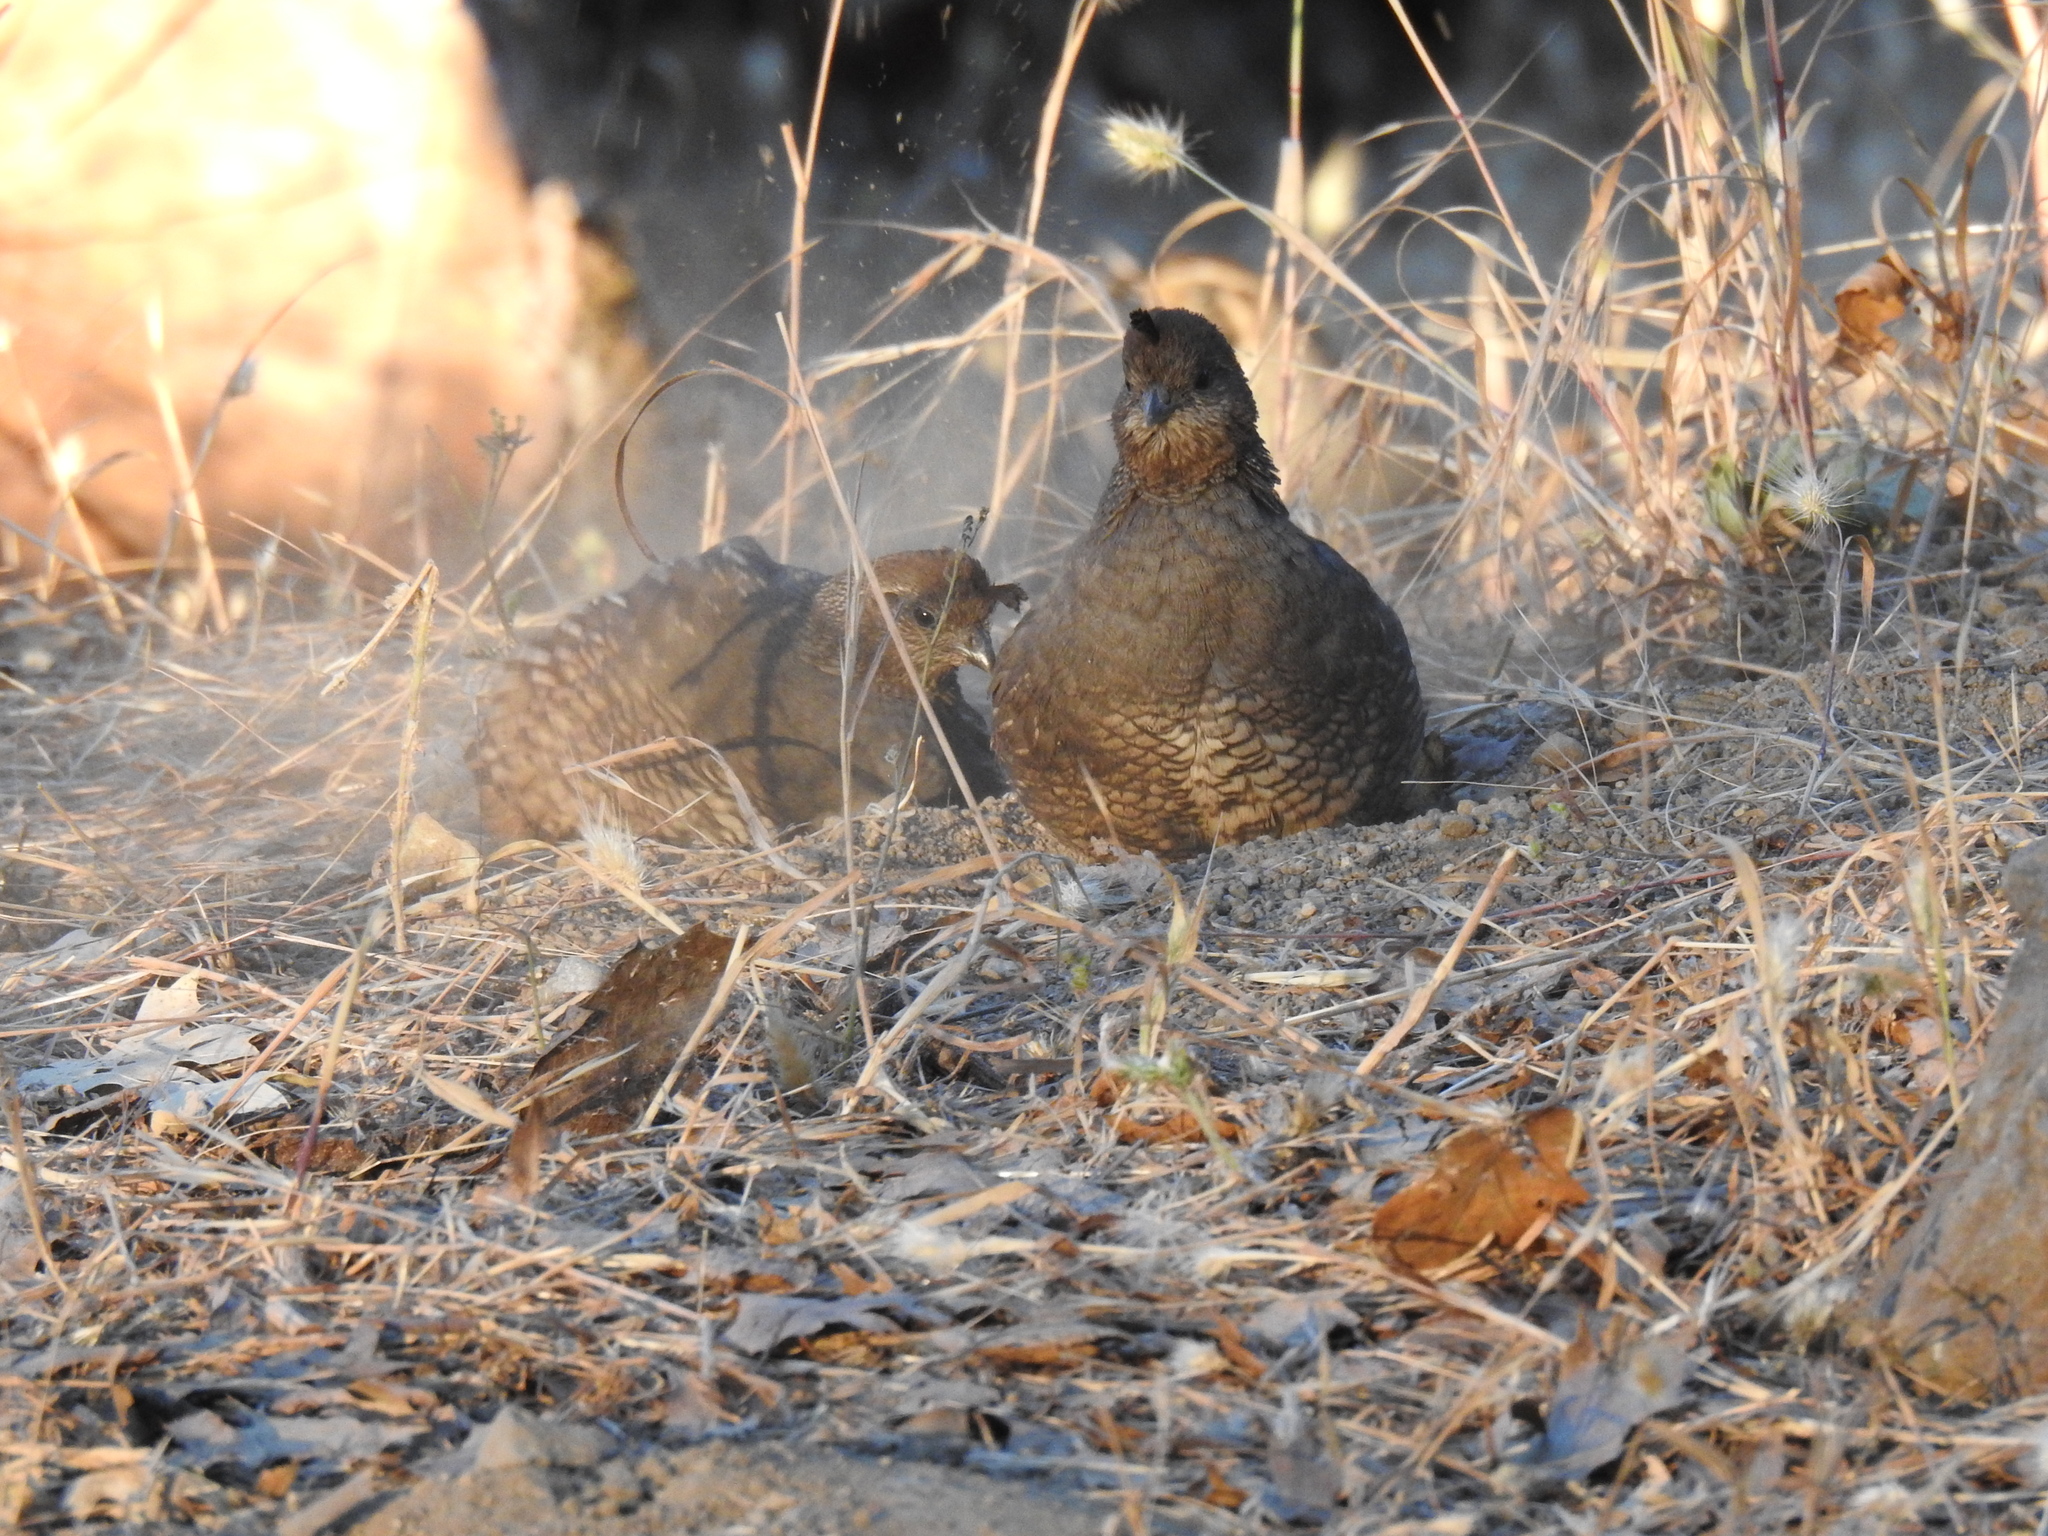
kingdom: Animalia
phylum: Chordata
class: Aves
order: Galliformes
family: Odontophoridae
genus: Callipepla
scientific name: Callipepla californica
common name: California quail
